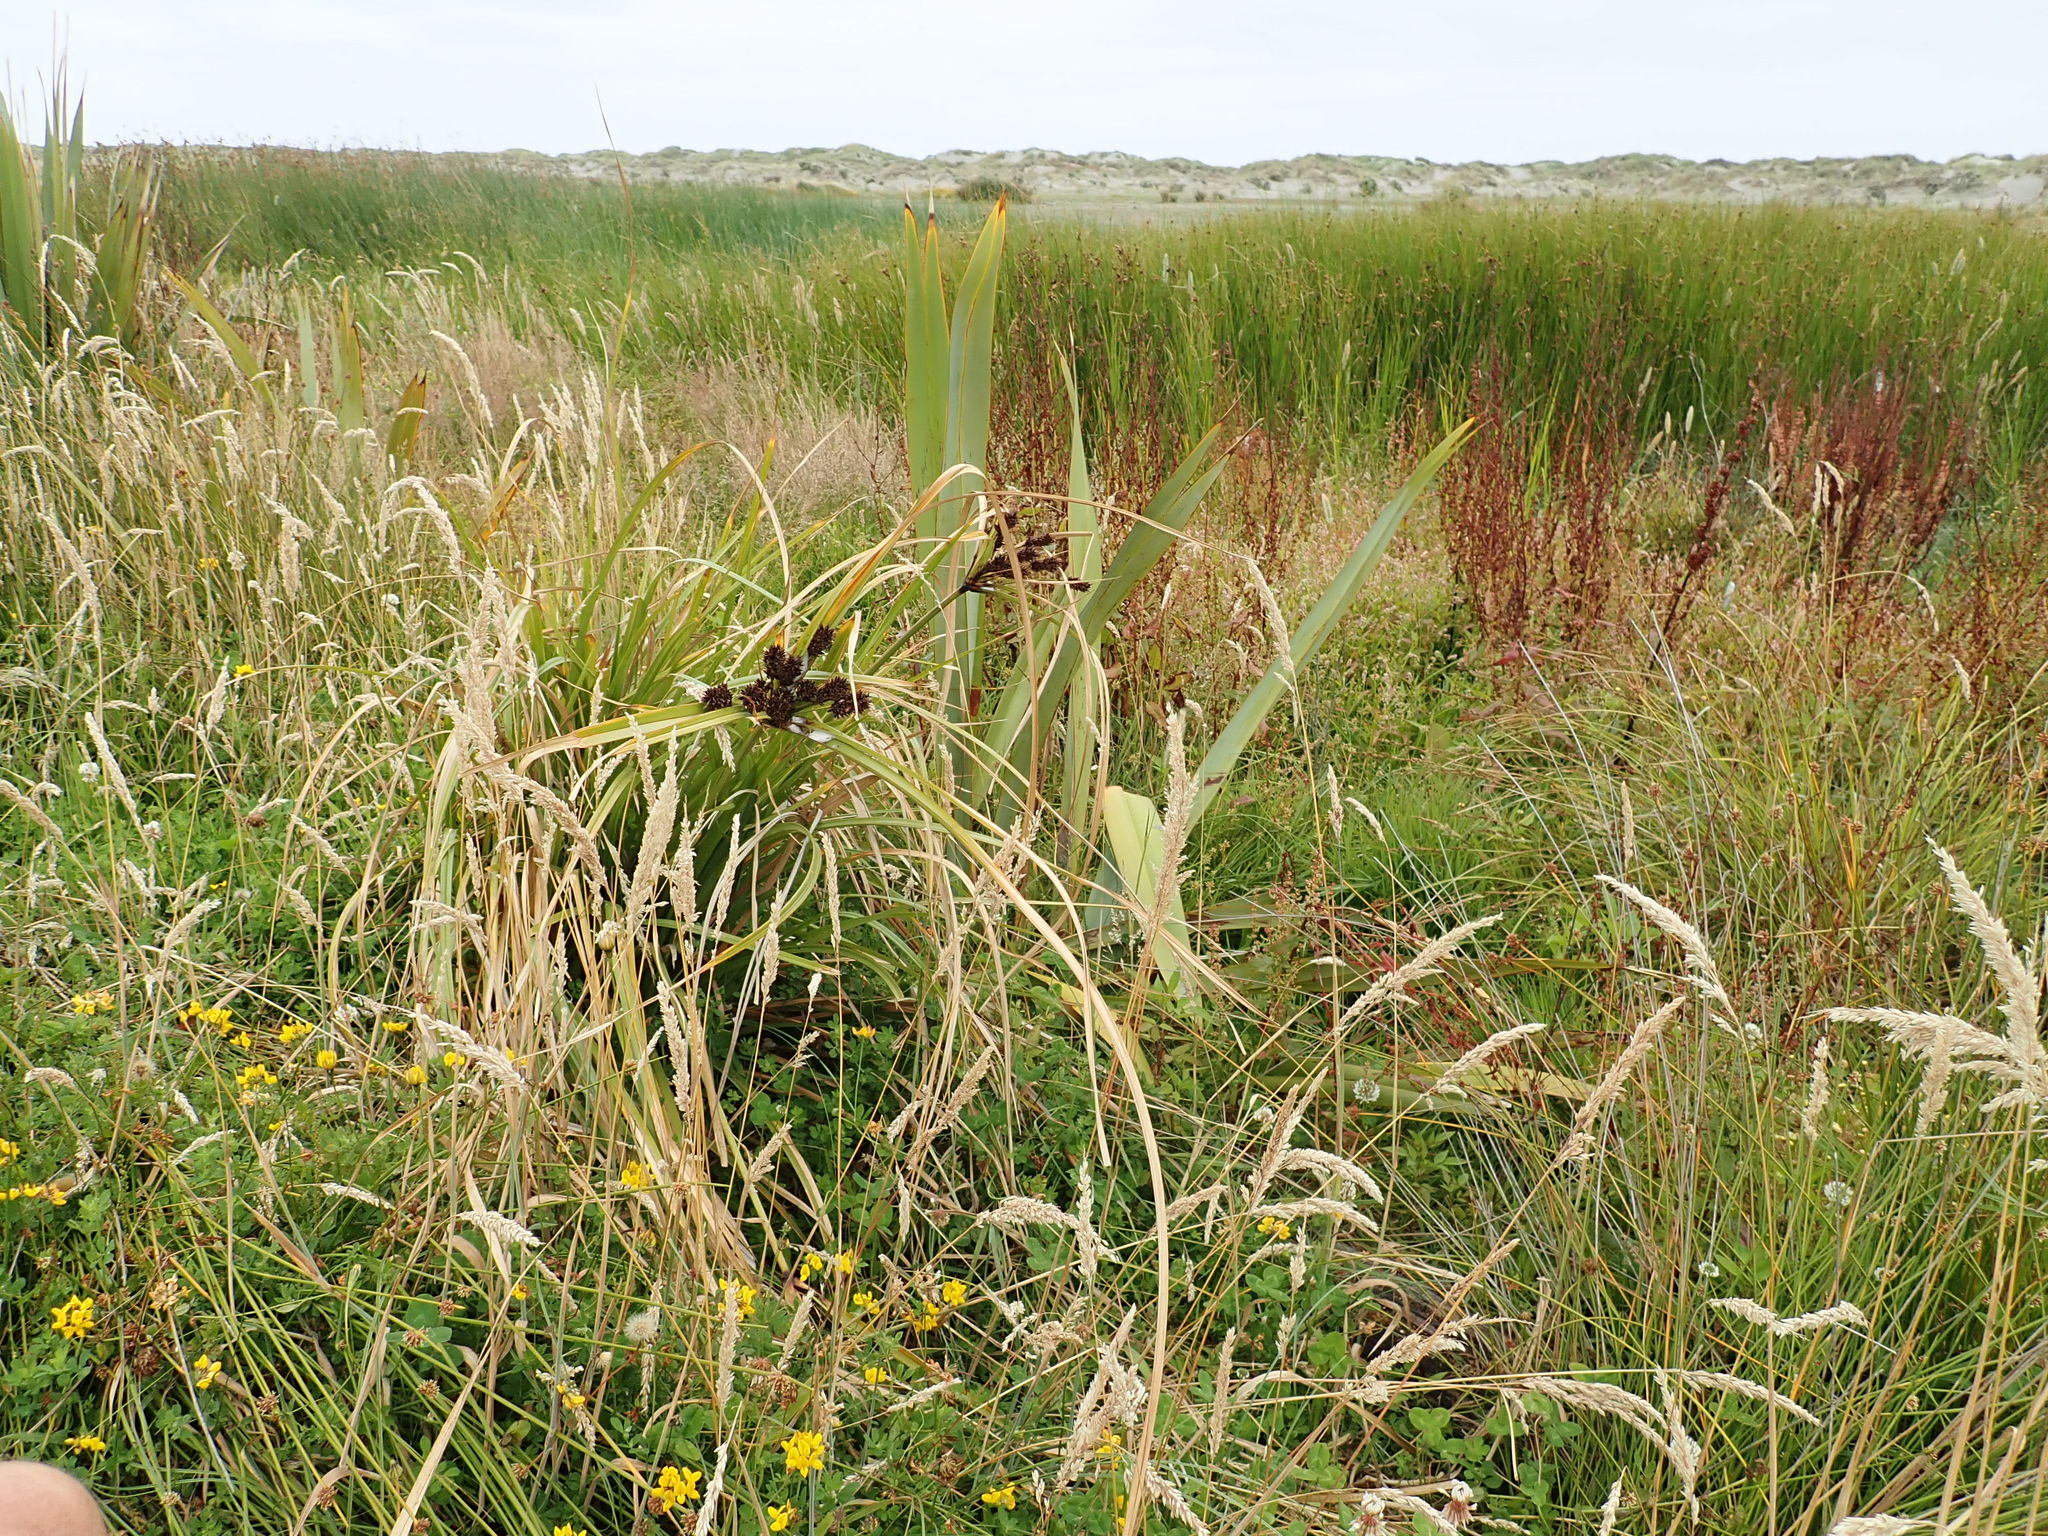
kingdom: Plantae
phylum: Tracheophyta
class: Liliopsida
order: Poales
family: Cyperaceae
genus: Cyperus
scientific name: Cyperus ustulatus
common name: Giant umbrella-sedge
